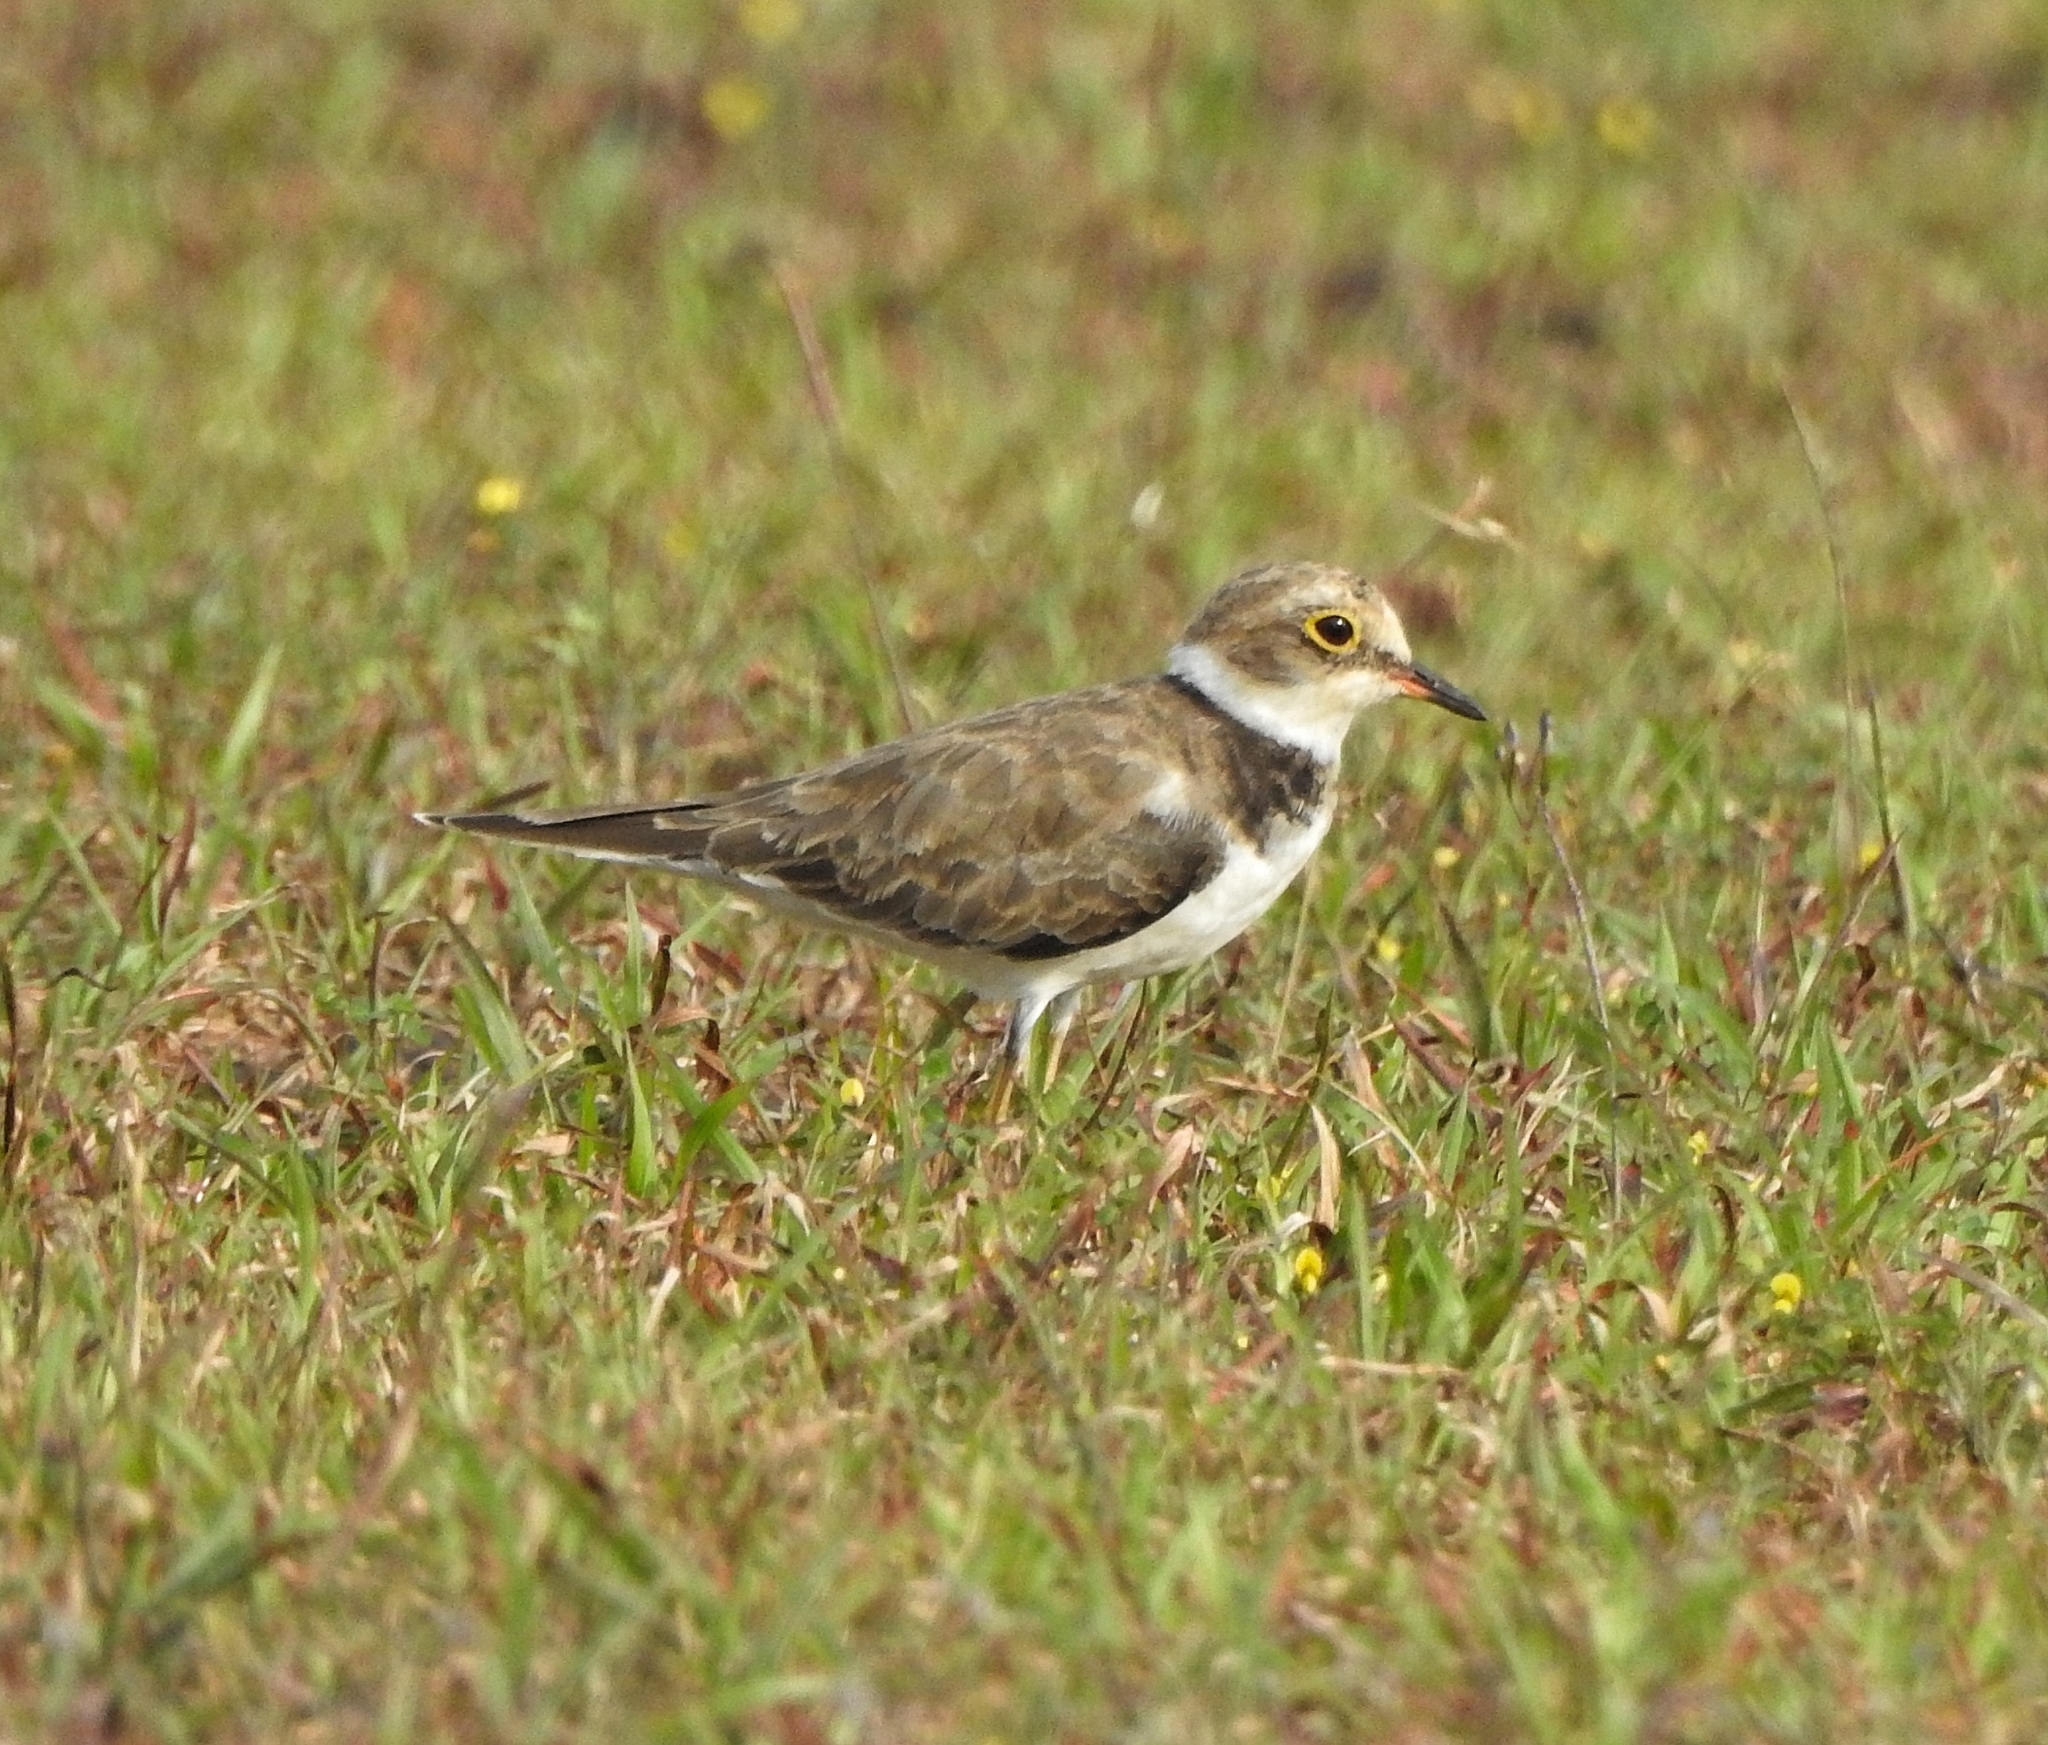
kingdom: Animalia
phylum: Chordata
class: Aves
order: Charadriiformes
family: Charadriidae
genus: Charadrius
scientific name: Charadrius dubius
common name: Little ringed plover
